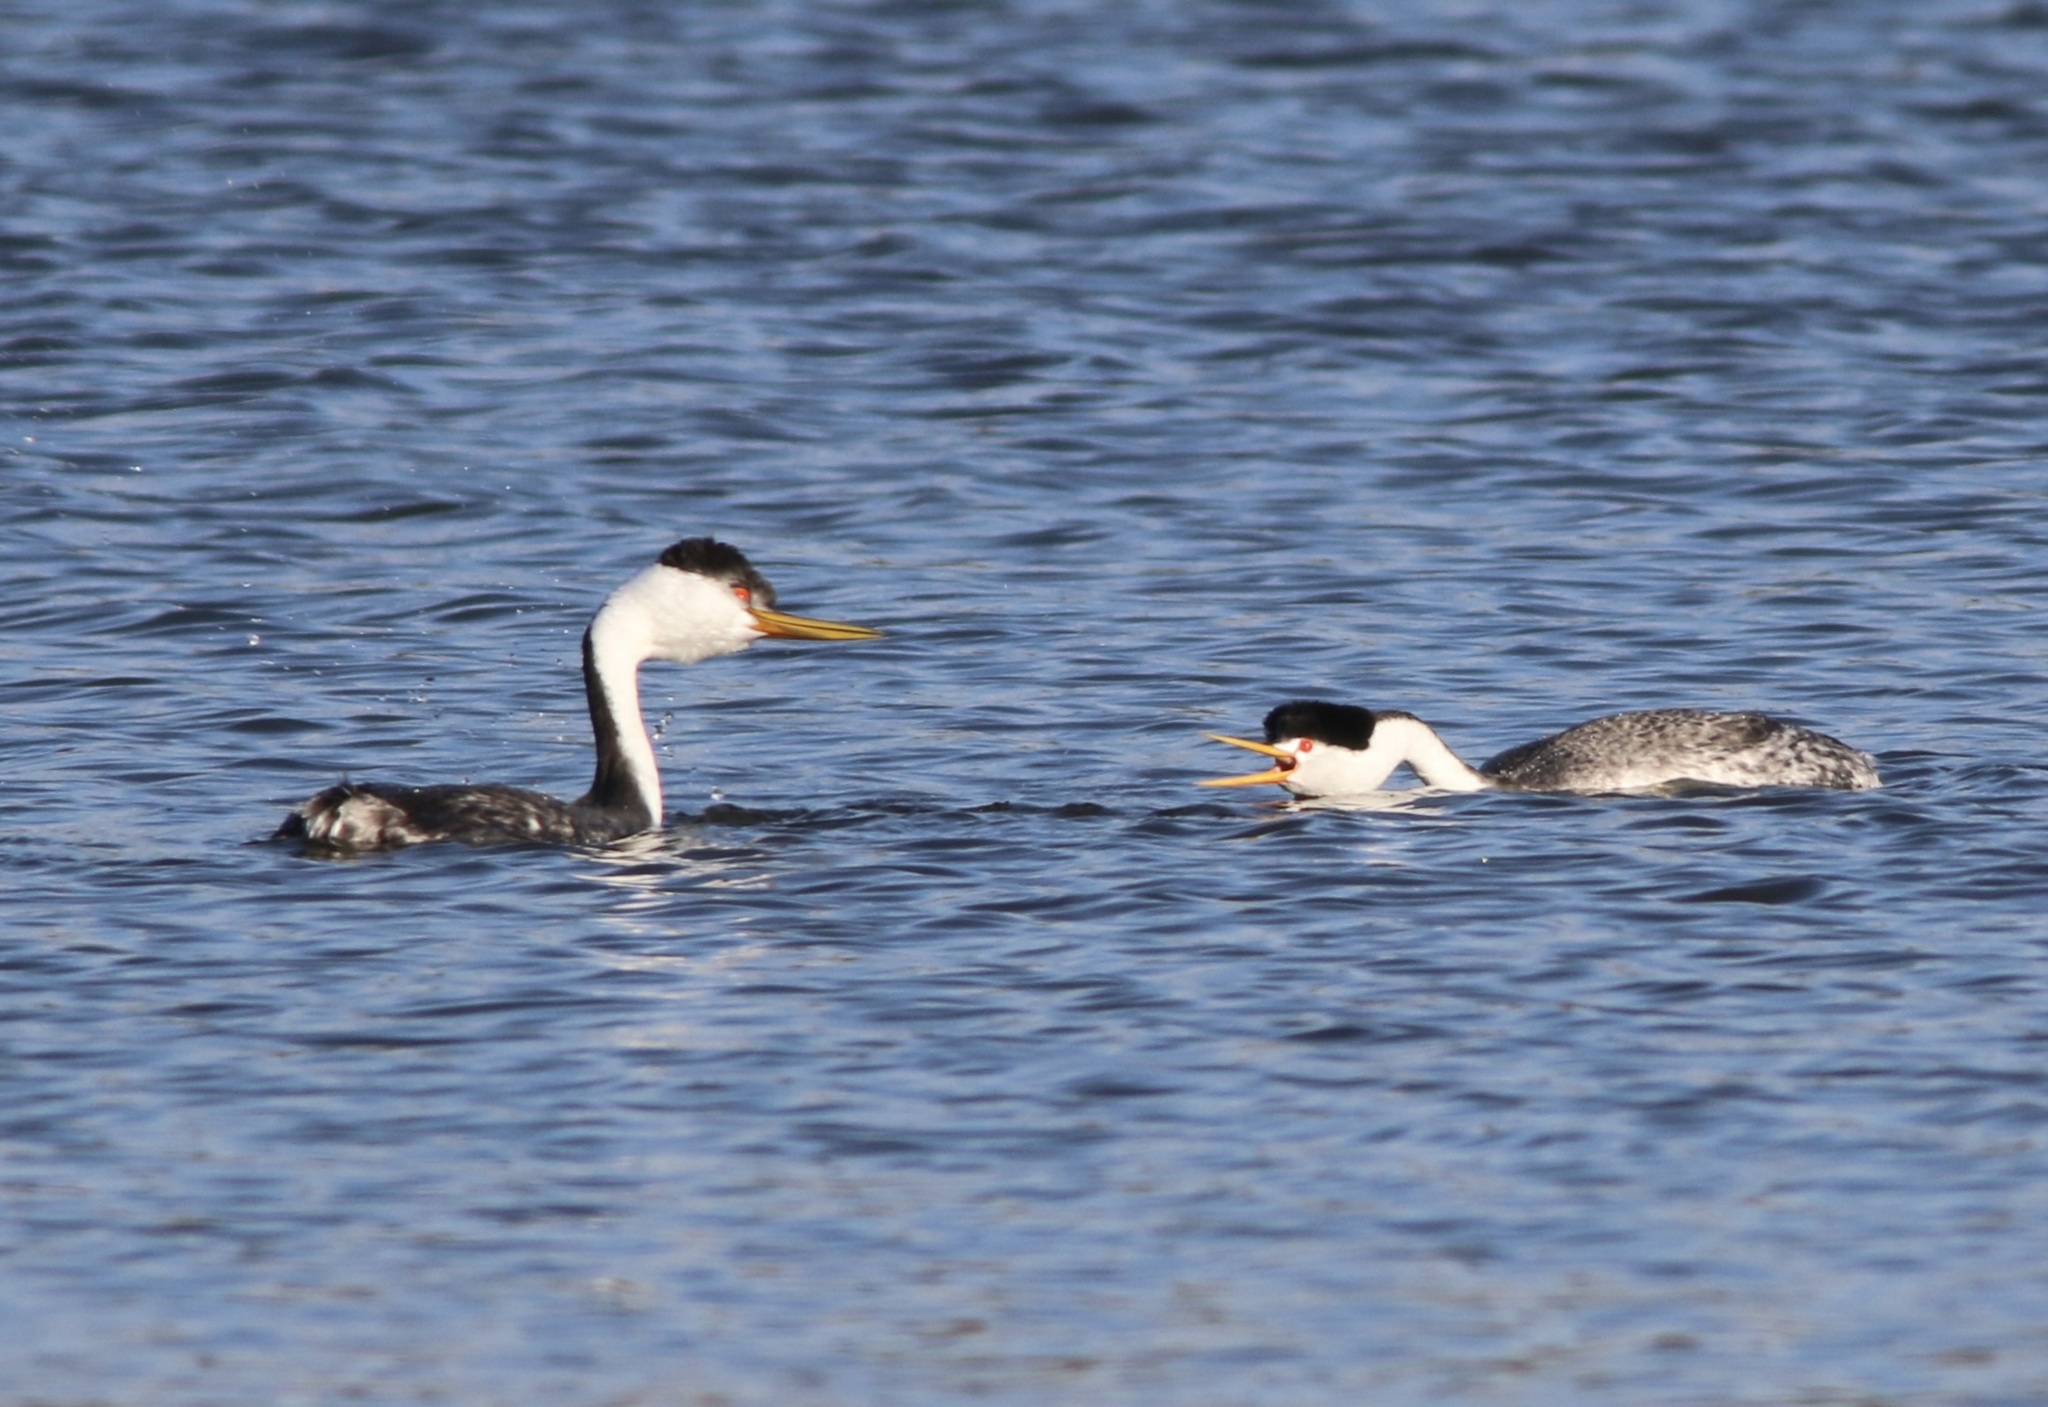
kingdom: Animalia
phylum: Chordata
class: Aves
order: Podicipediformes
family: Podicipedidae
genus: Aechmophorus
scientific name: Aechmophorus clarkii
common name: Clark's grebe
